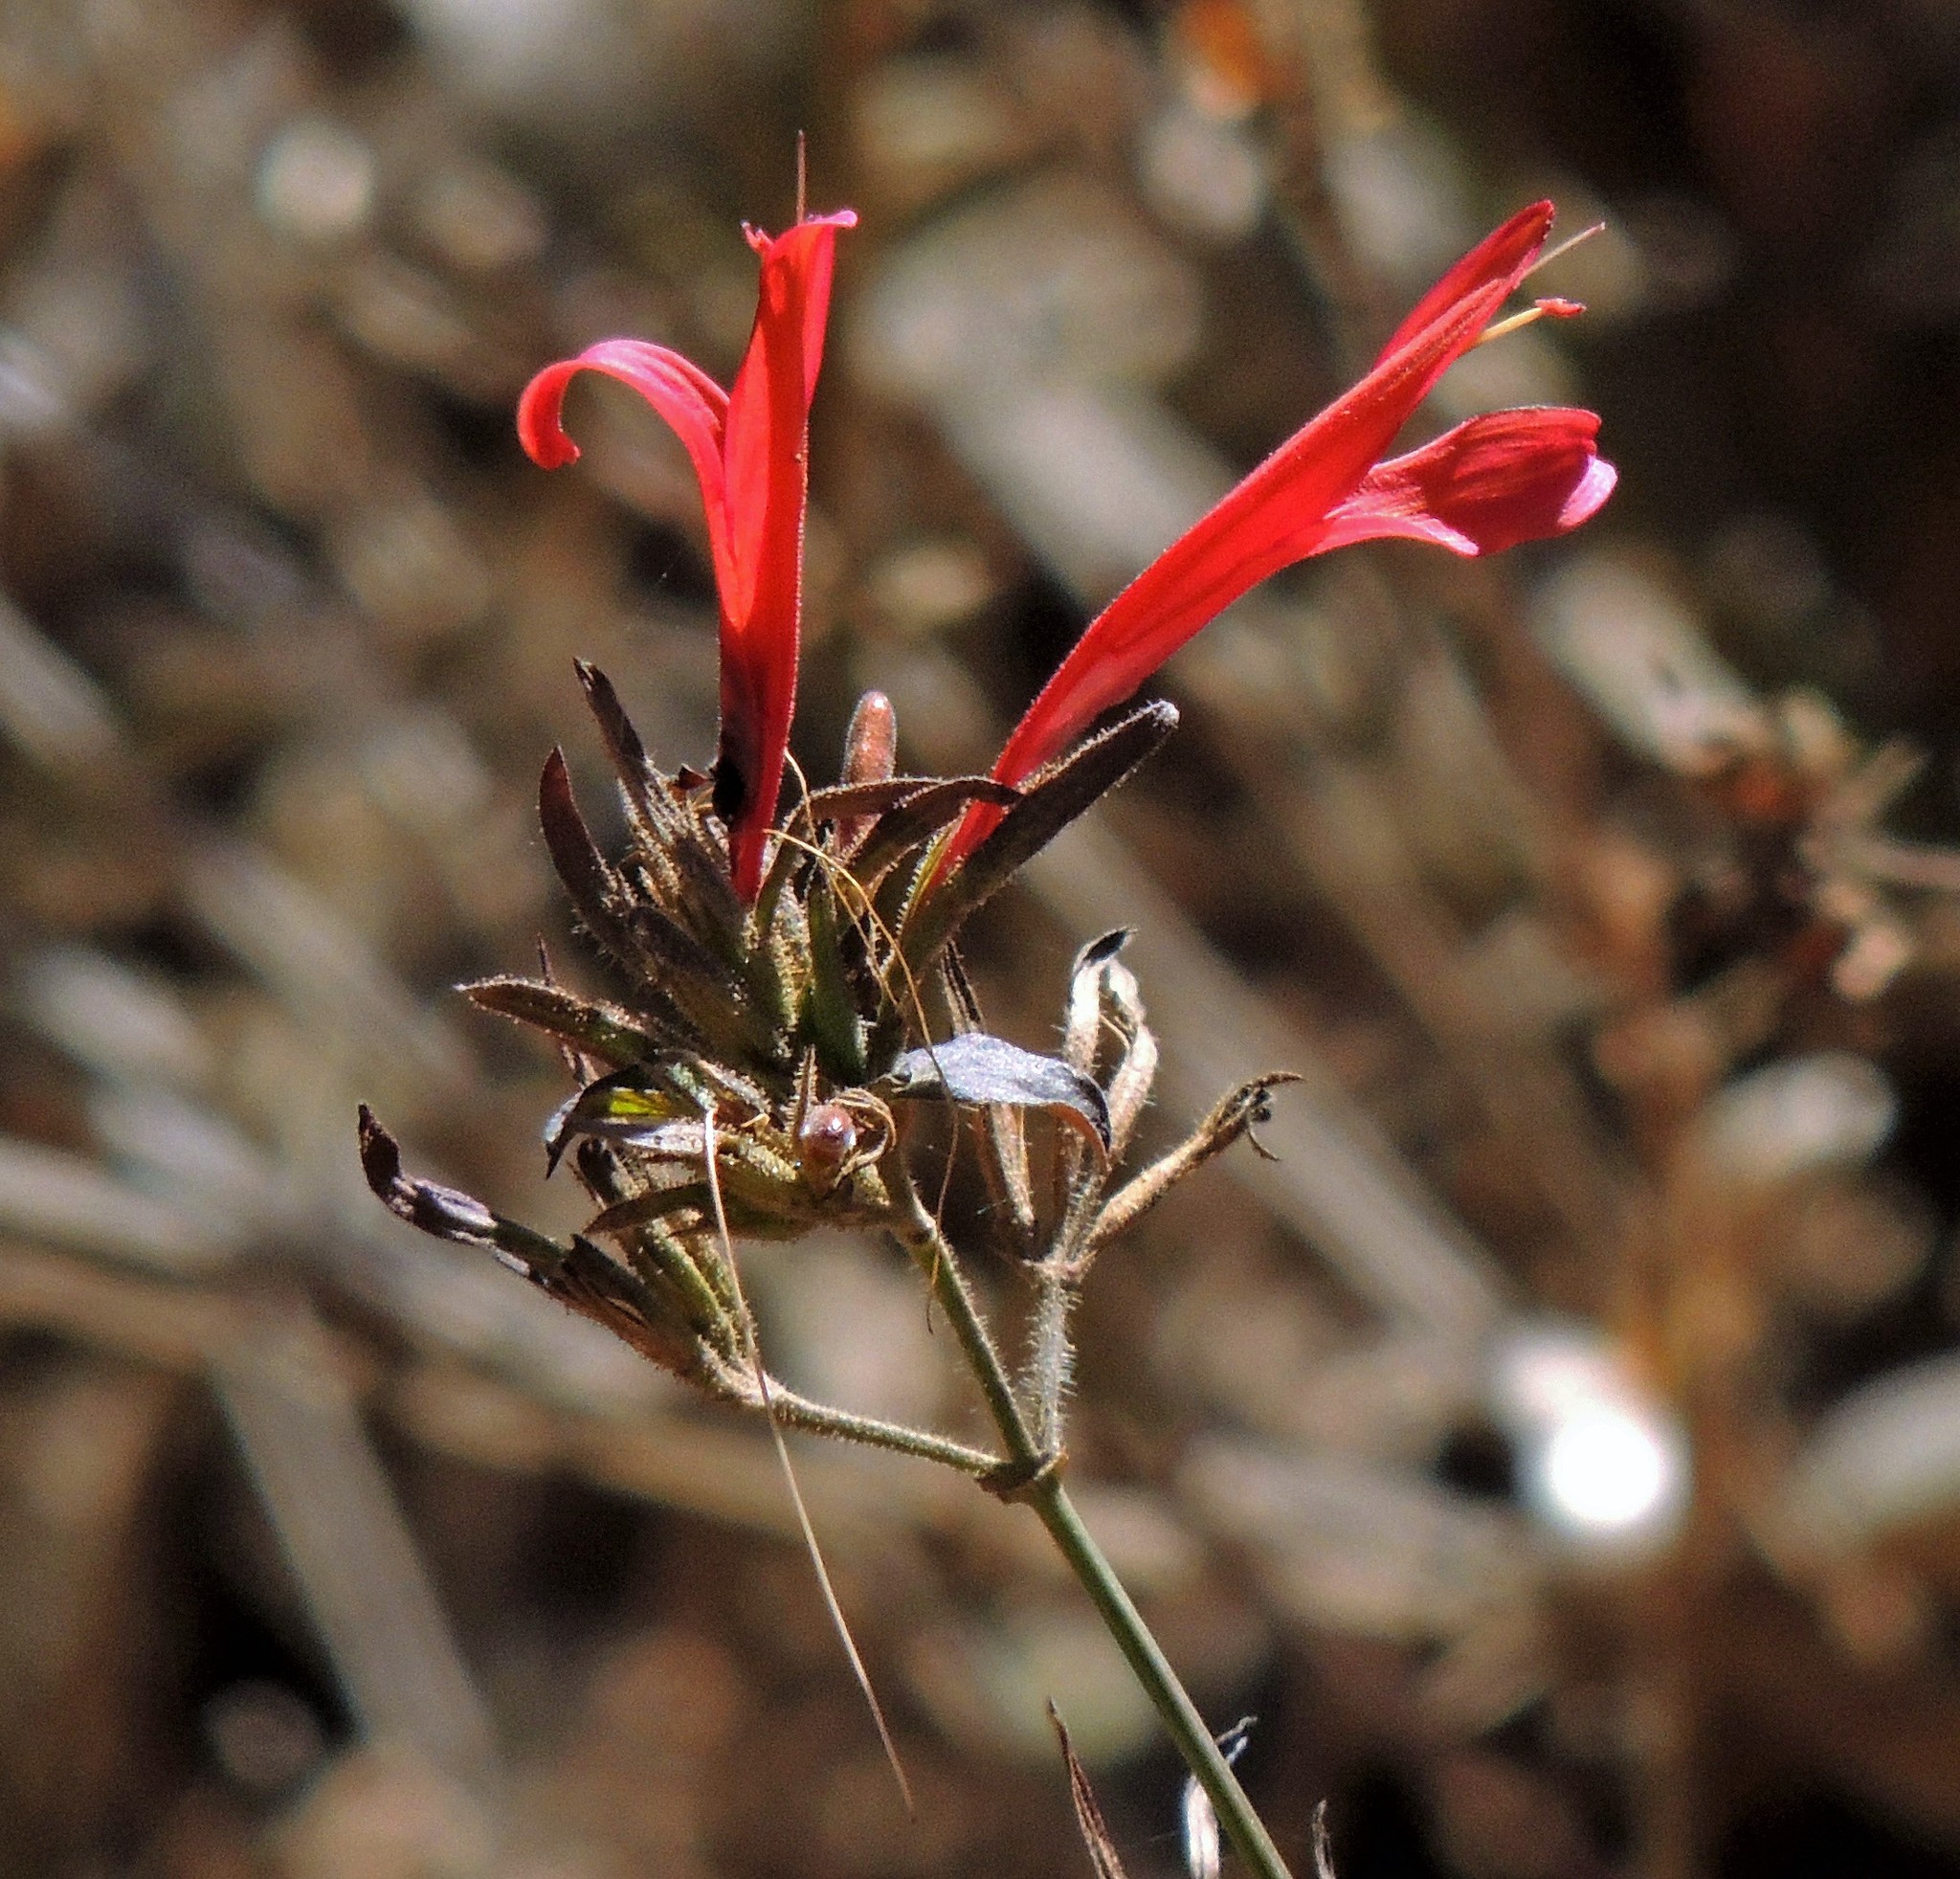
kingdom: Plantae
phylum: Tracheophyta
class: Magnoliopsida
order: Lamiales
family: Acanthaceae
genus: Dicliptera
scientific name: Dicliptera squarrosa
